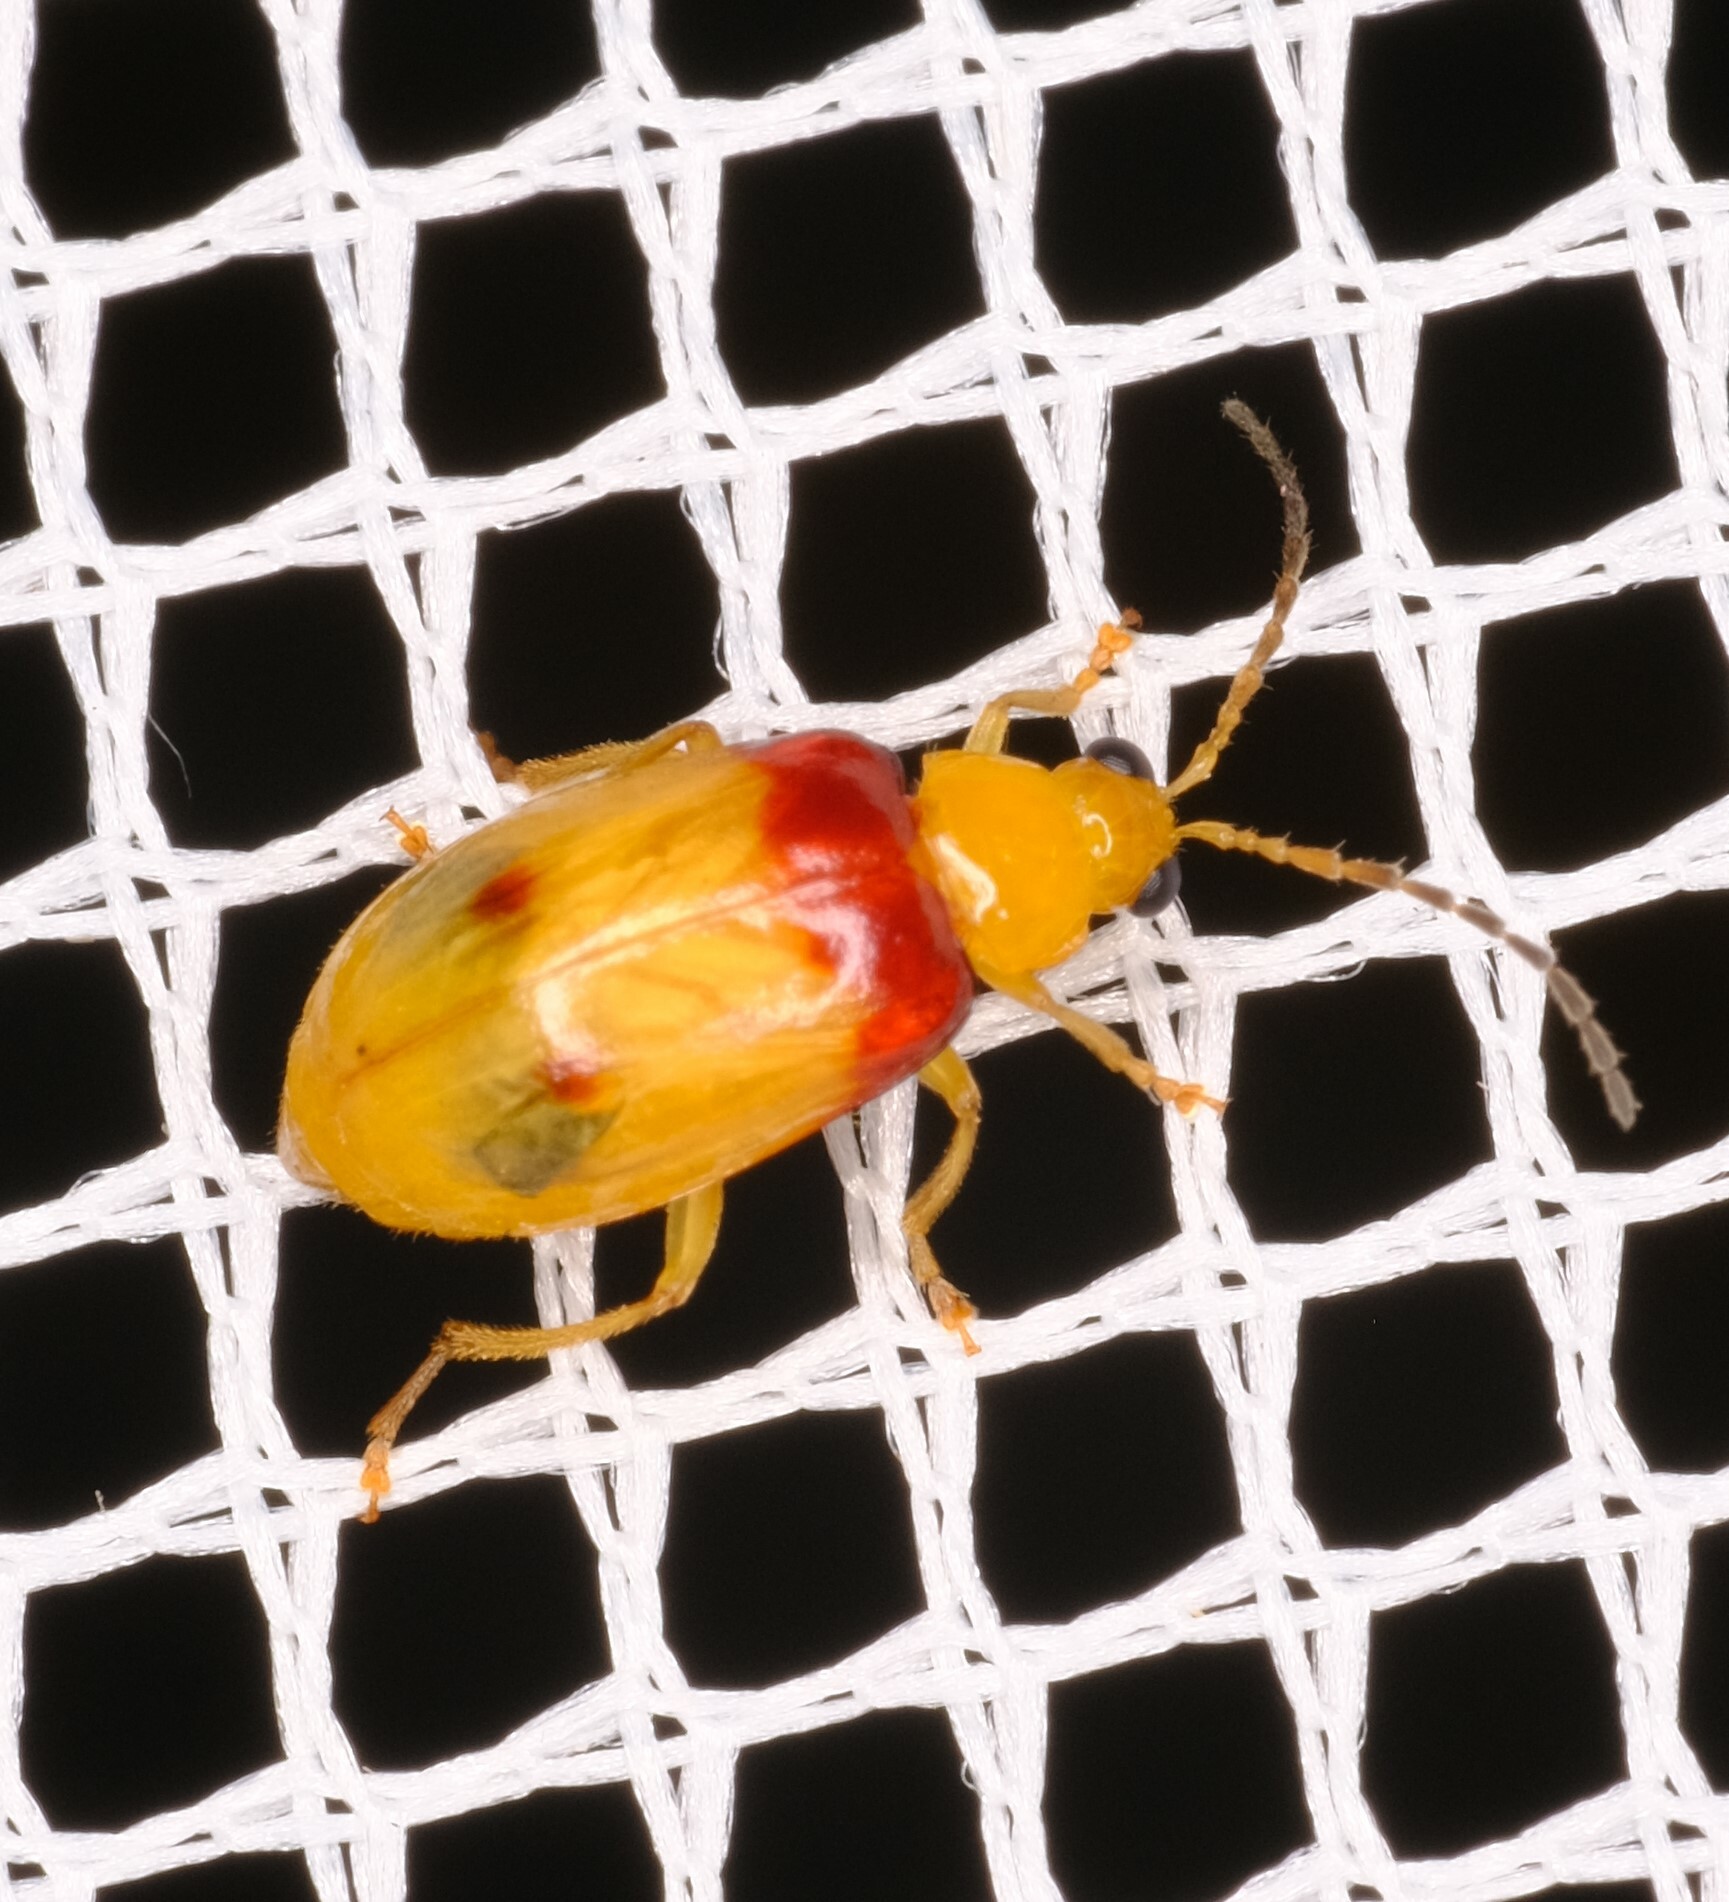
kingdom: Animalia
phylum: Arthropoda
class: Insecta
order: Coleoptera
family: Chrysomelidae
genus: Monolepta
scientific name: Monolepta
